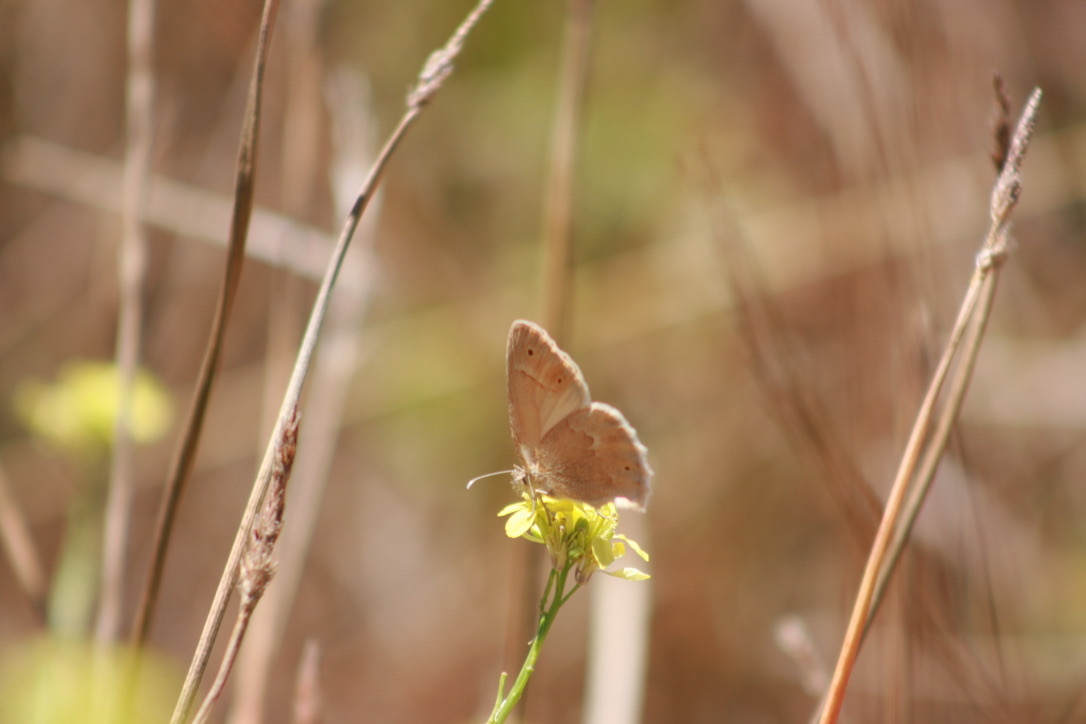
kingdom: Animalia
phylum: Arthropoda
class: Insecta
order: Lepidoptera
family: Nymphalidae
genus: Coenonympha
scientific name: Coenonympha california
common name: Common ringlet
